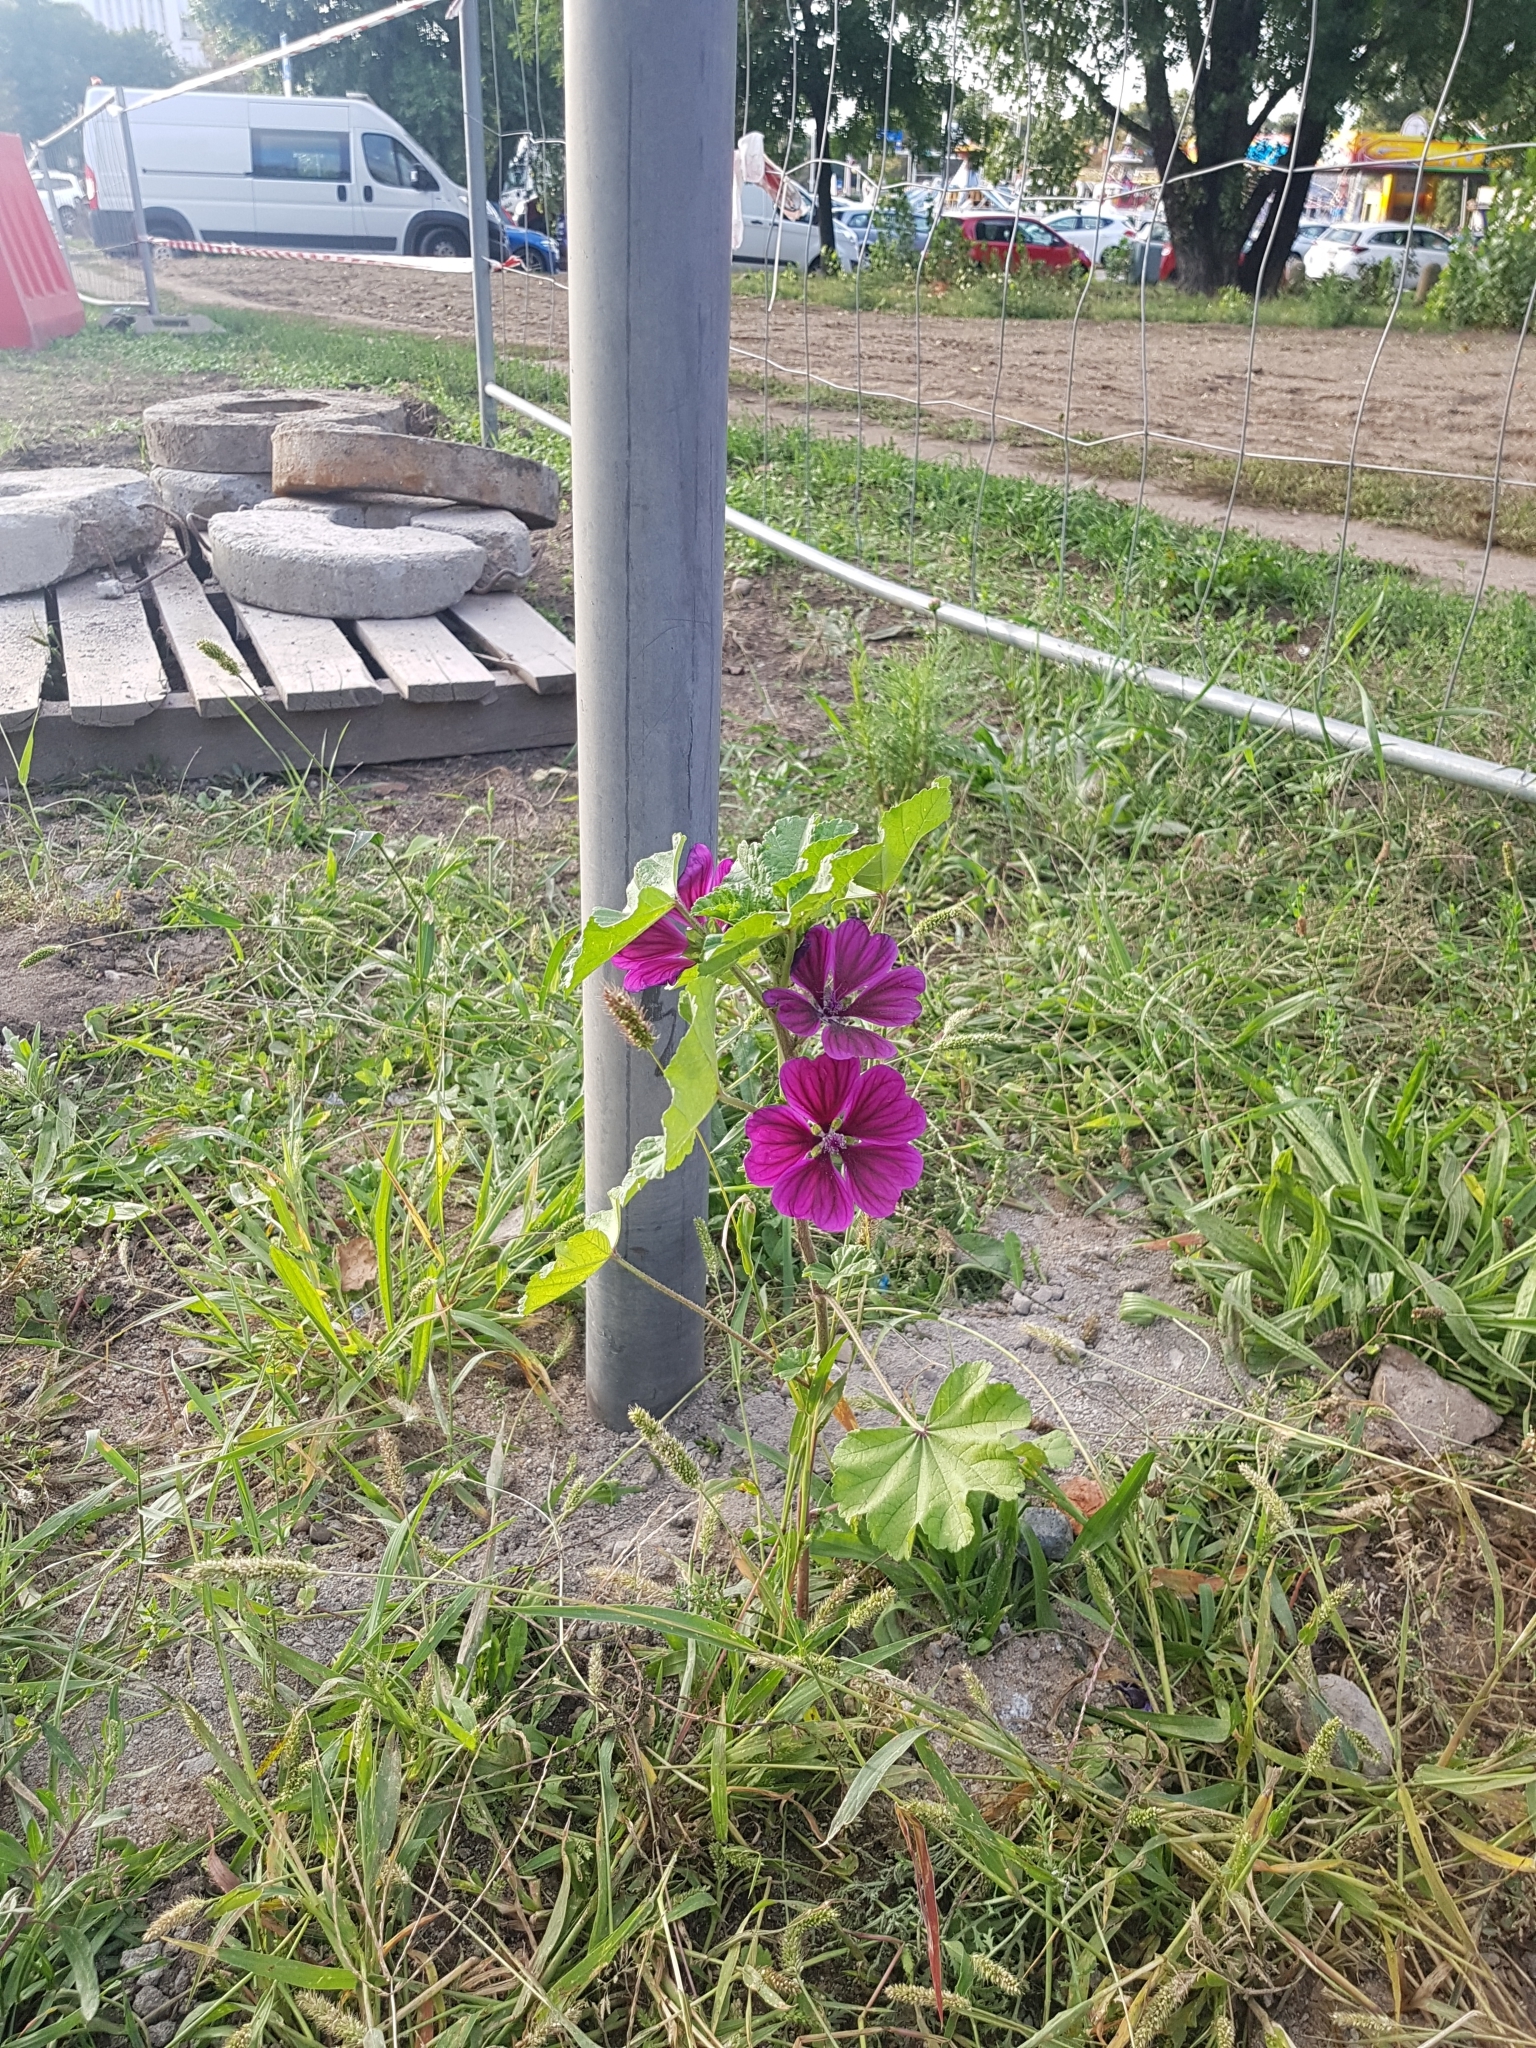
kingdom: Plantae
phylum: Tracheophyta
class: Magnoliopsida
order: Malvales
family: Malvaceae
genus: Malva
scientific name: Malva sylvestris
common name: Common mallow
